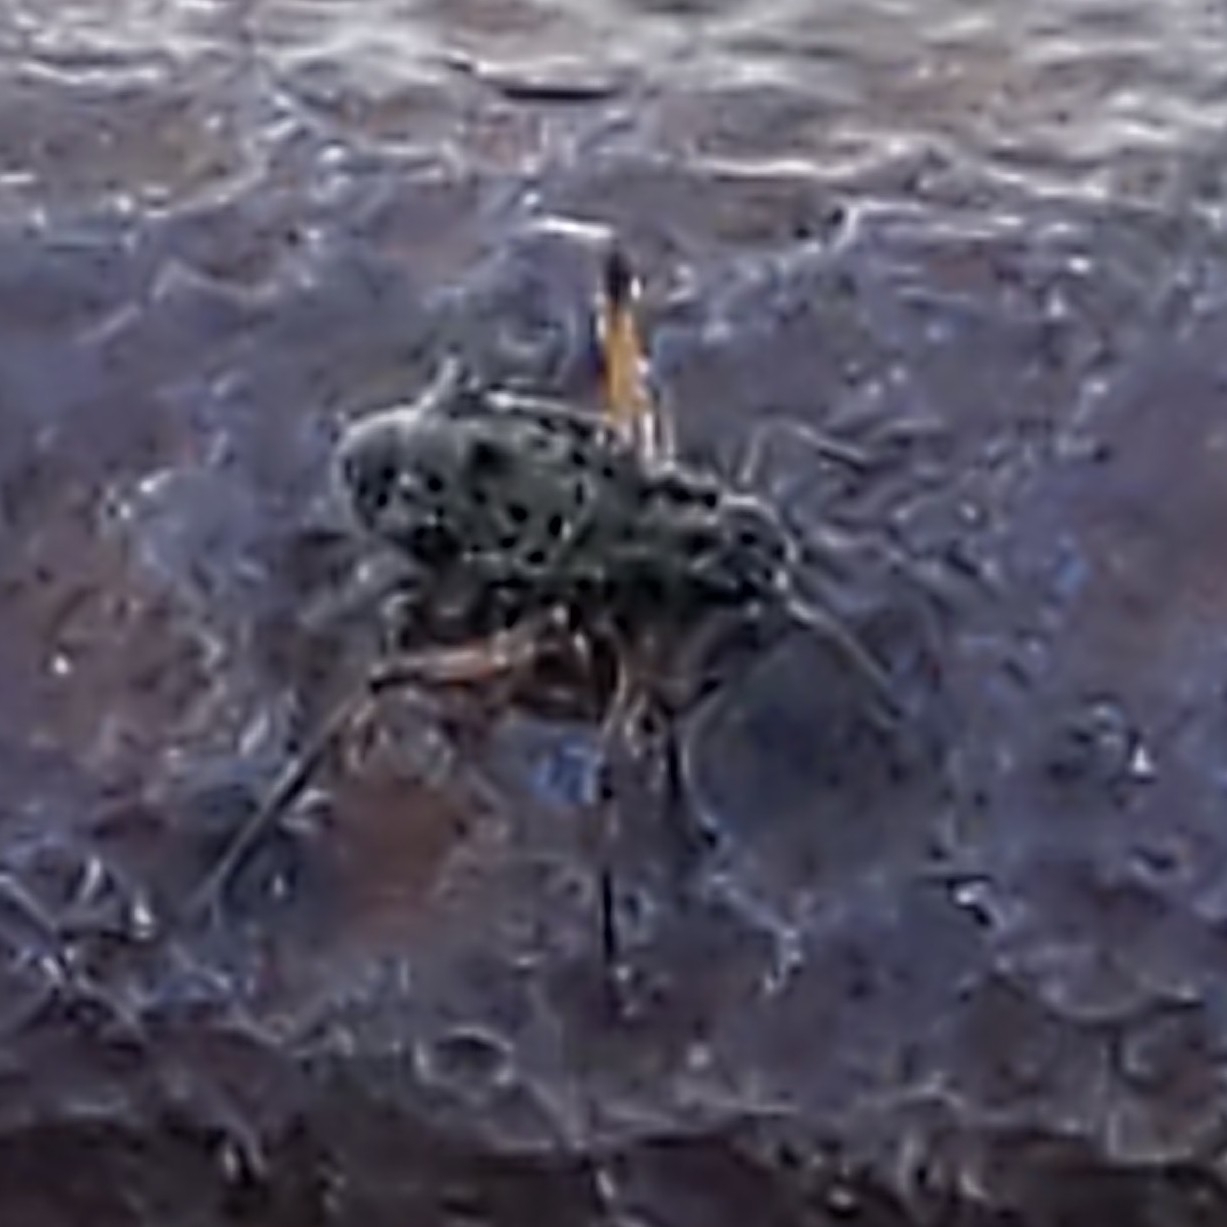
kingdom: Animalia
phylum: Arthropoda
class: Insecta
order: Hemiptera
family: Aphididae
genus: Tuberolachnus
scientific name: Tuberolachnus salignus
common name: Giant willow aphid
